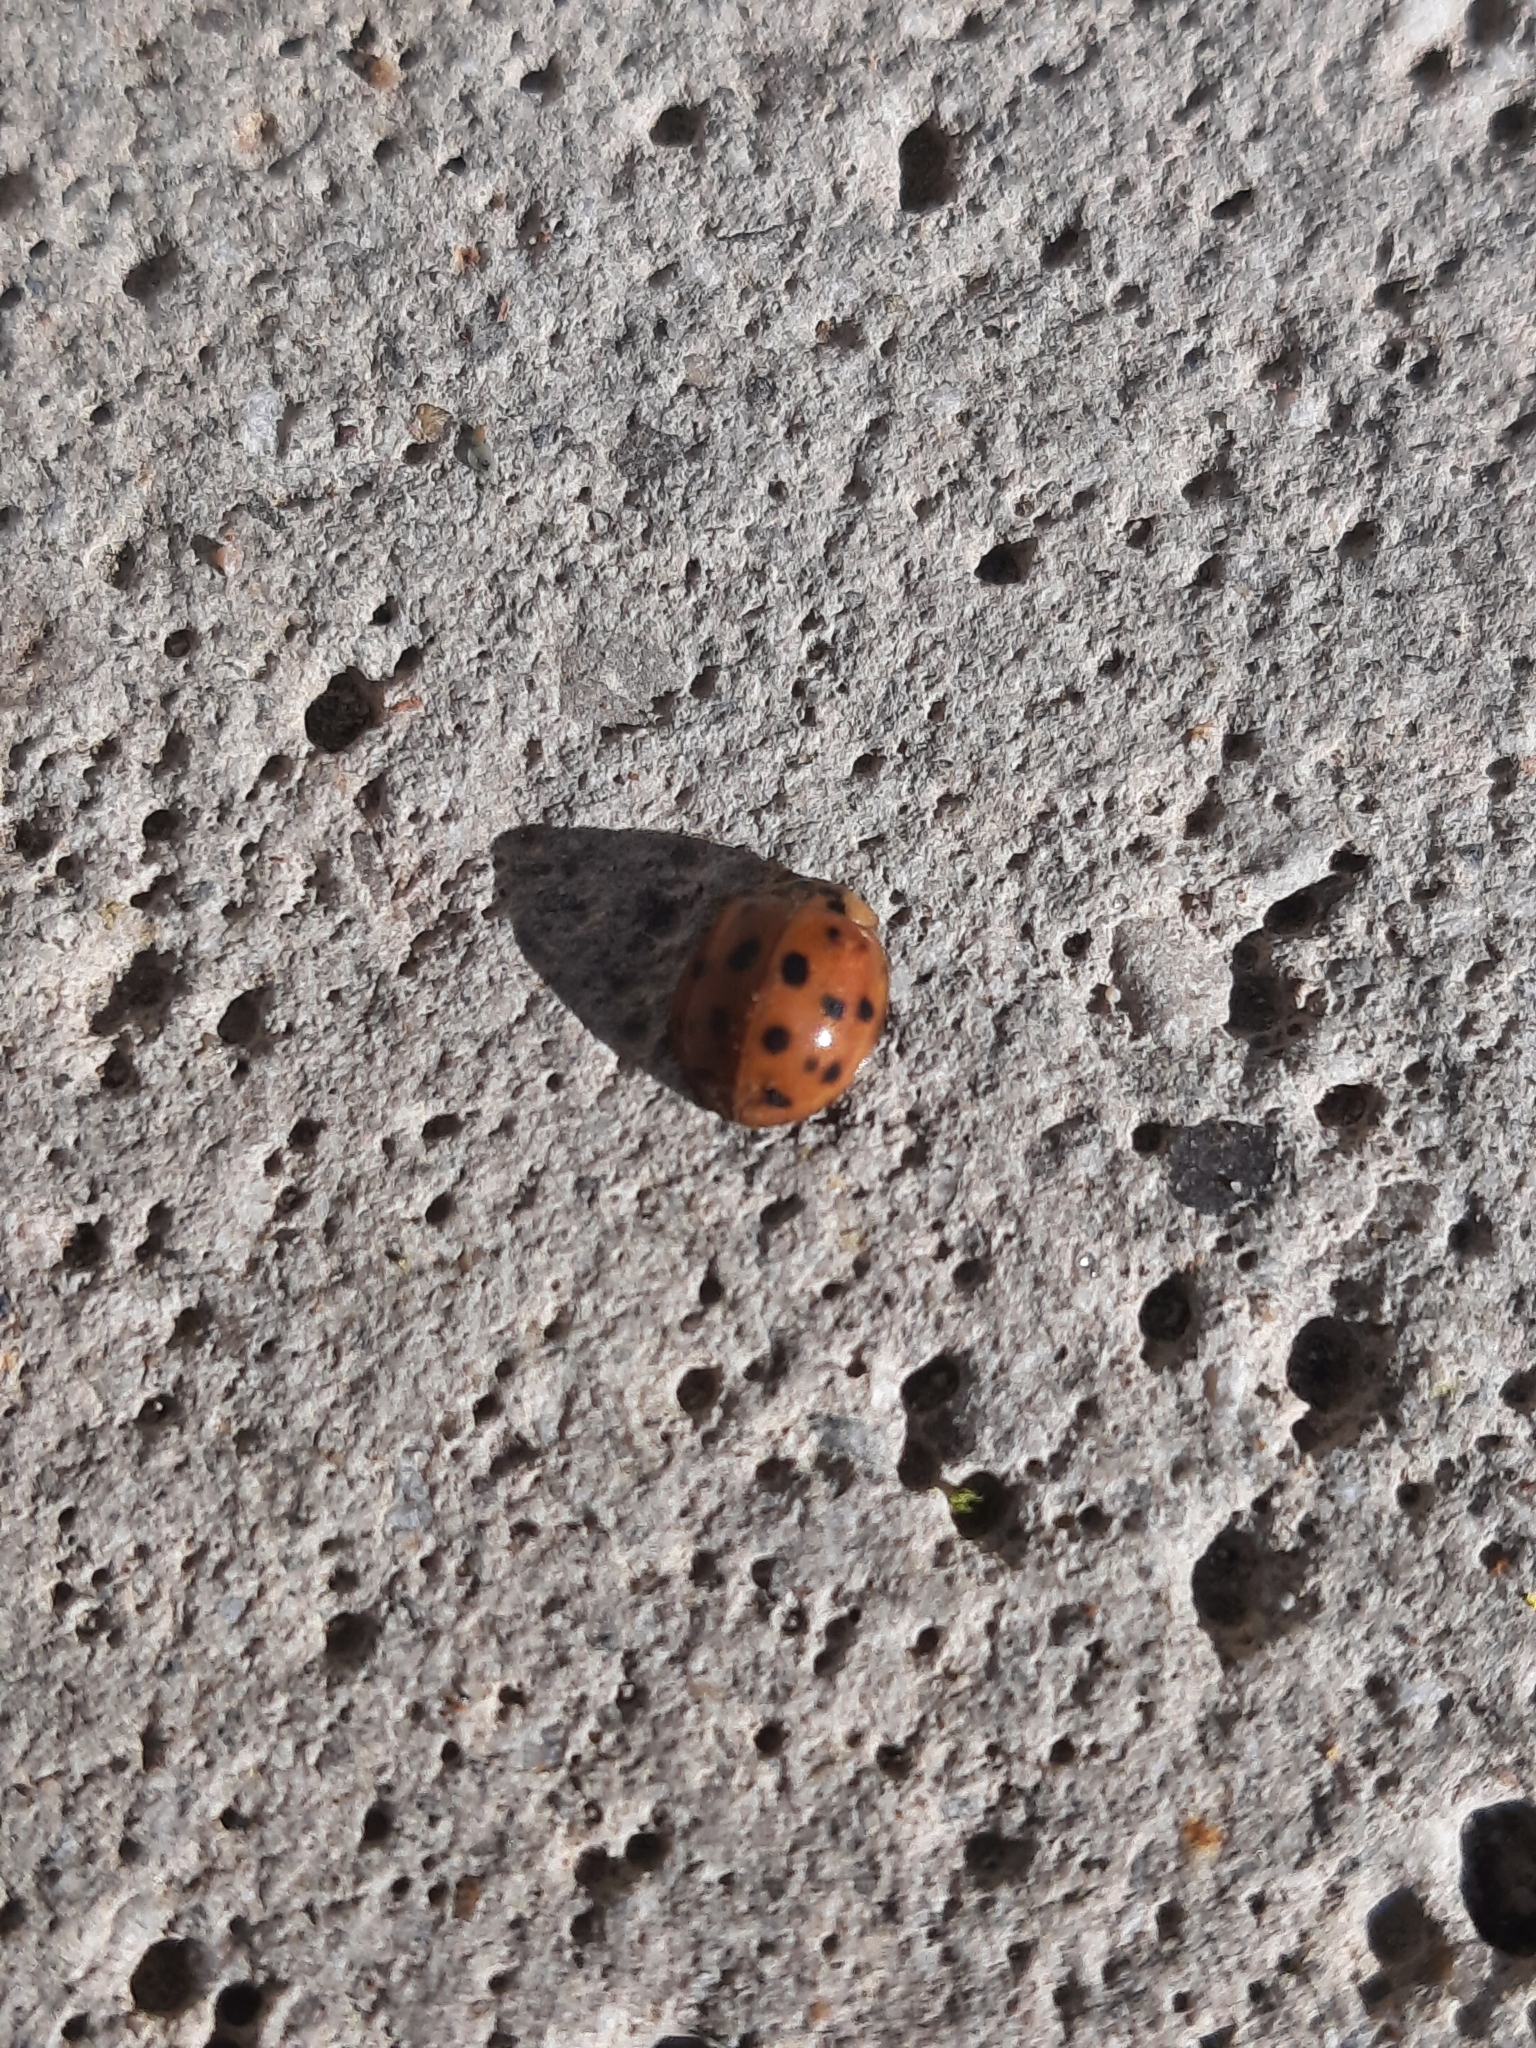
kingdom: Animalia
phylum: Arthropoda
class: Insecta
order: Coleoptera
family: Coccinellidae
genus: Harmonia
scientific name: Harmonia axyridis
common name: Harlequin ladybird
